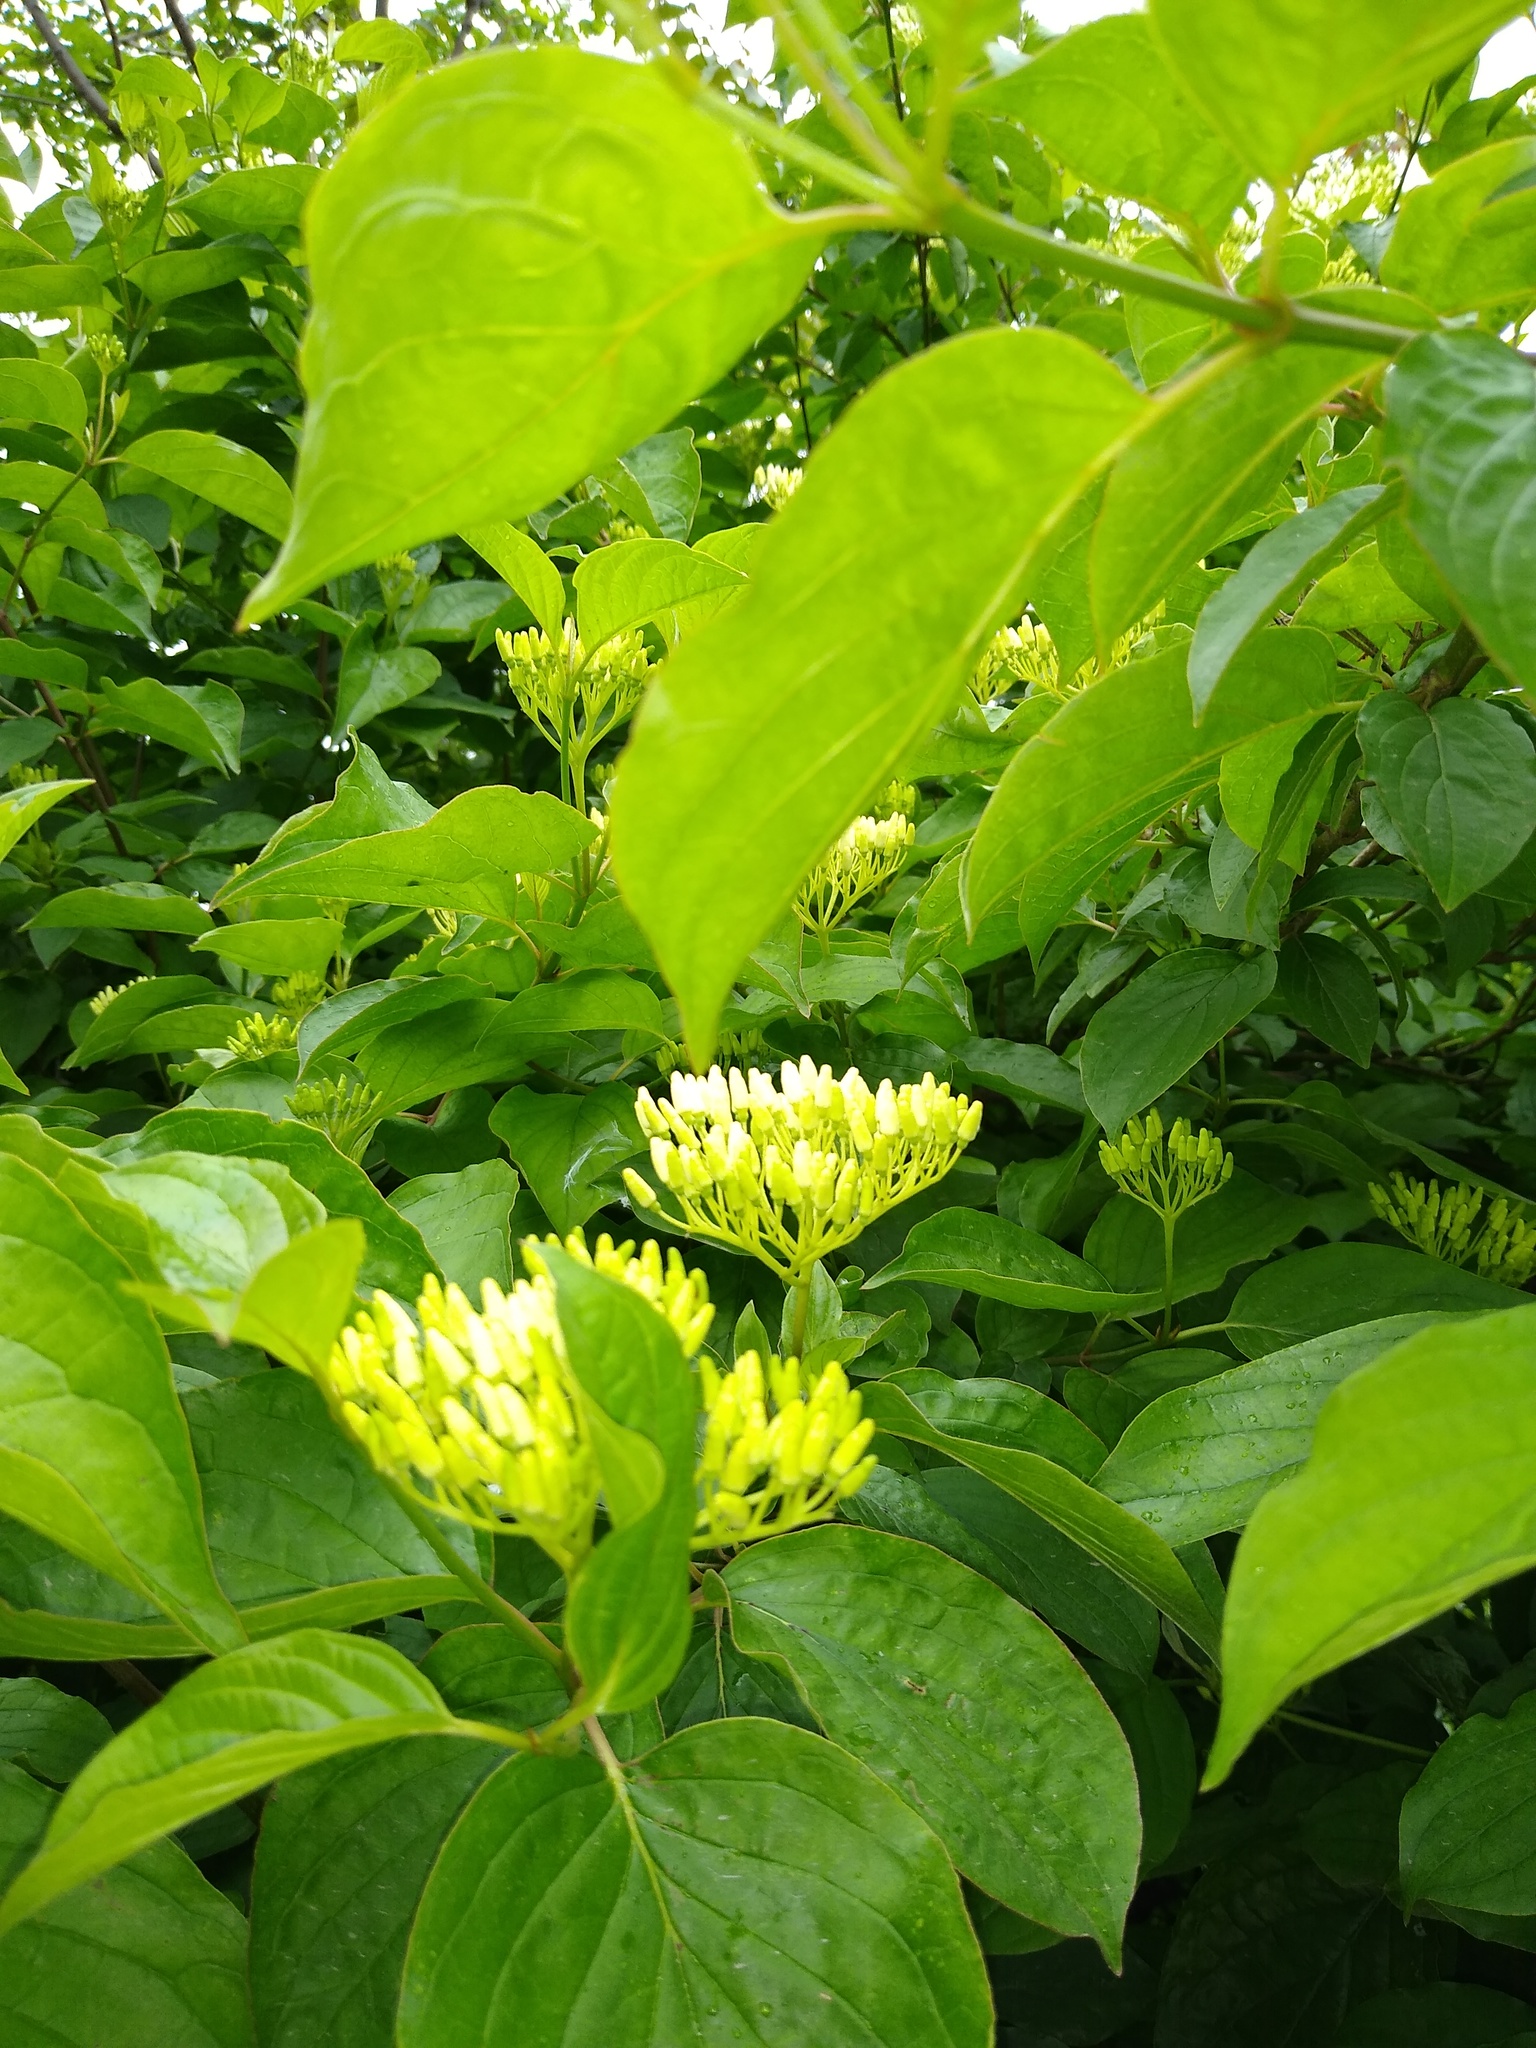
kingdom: Plantae
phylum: Tracheophyta
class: Magnoliopsida
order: Cornales
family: Cornaceae
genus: Cornus
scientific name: Cornus sanguinea
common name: Dogwood
